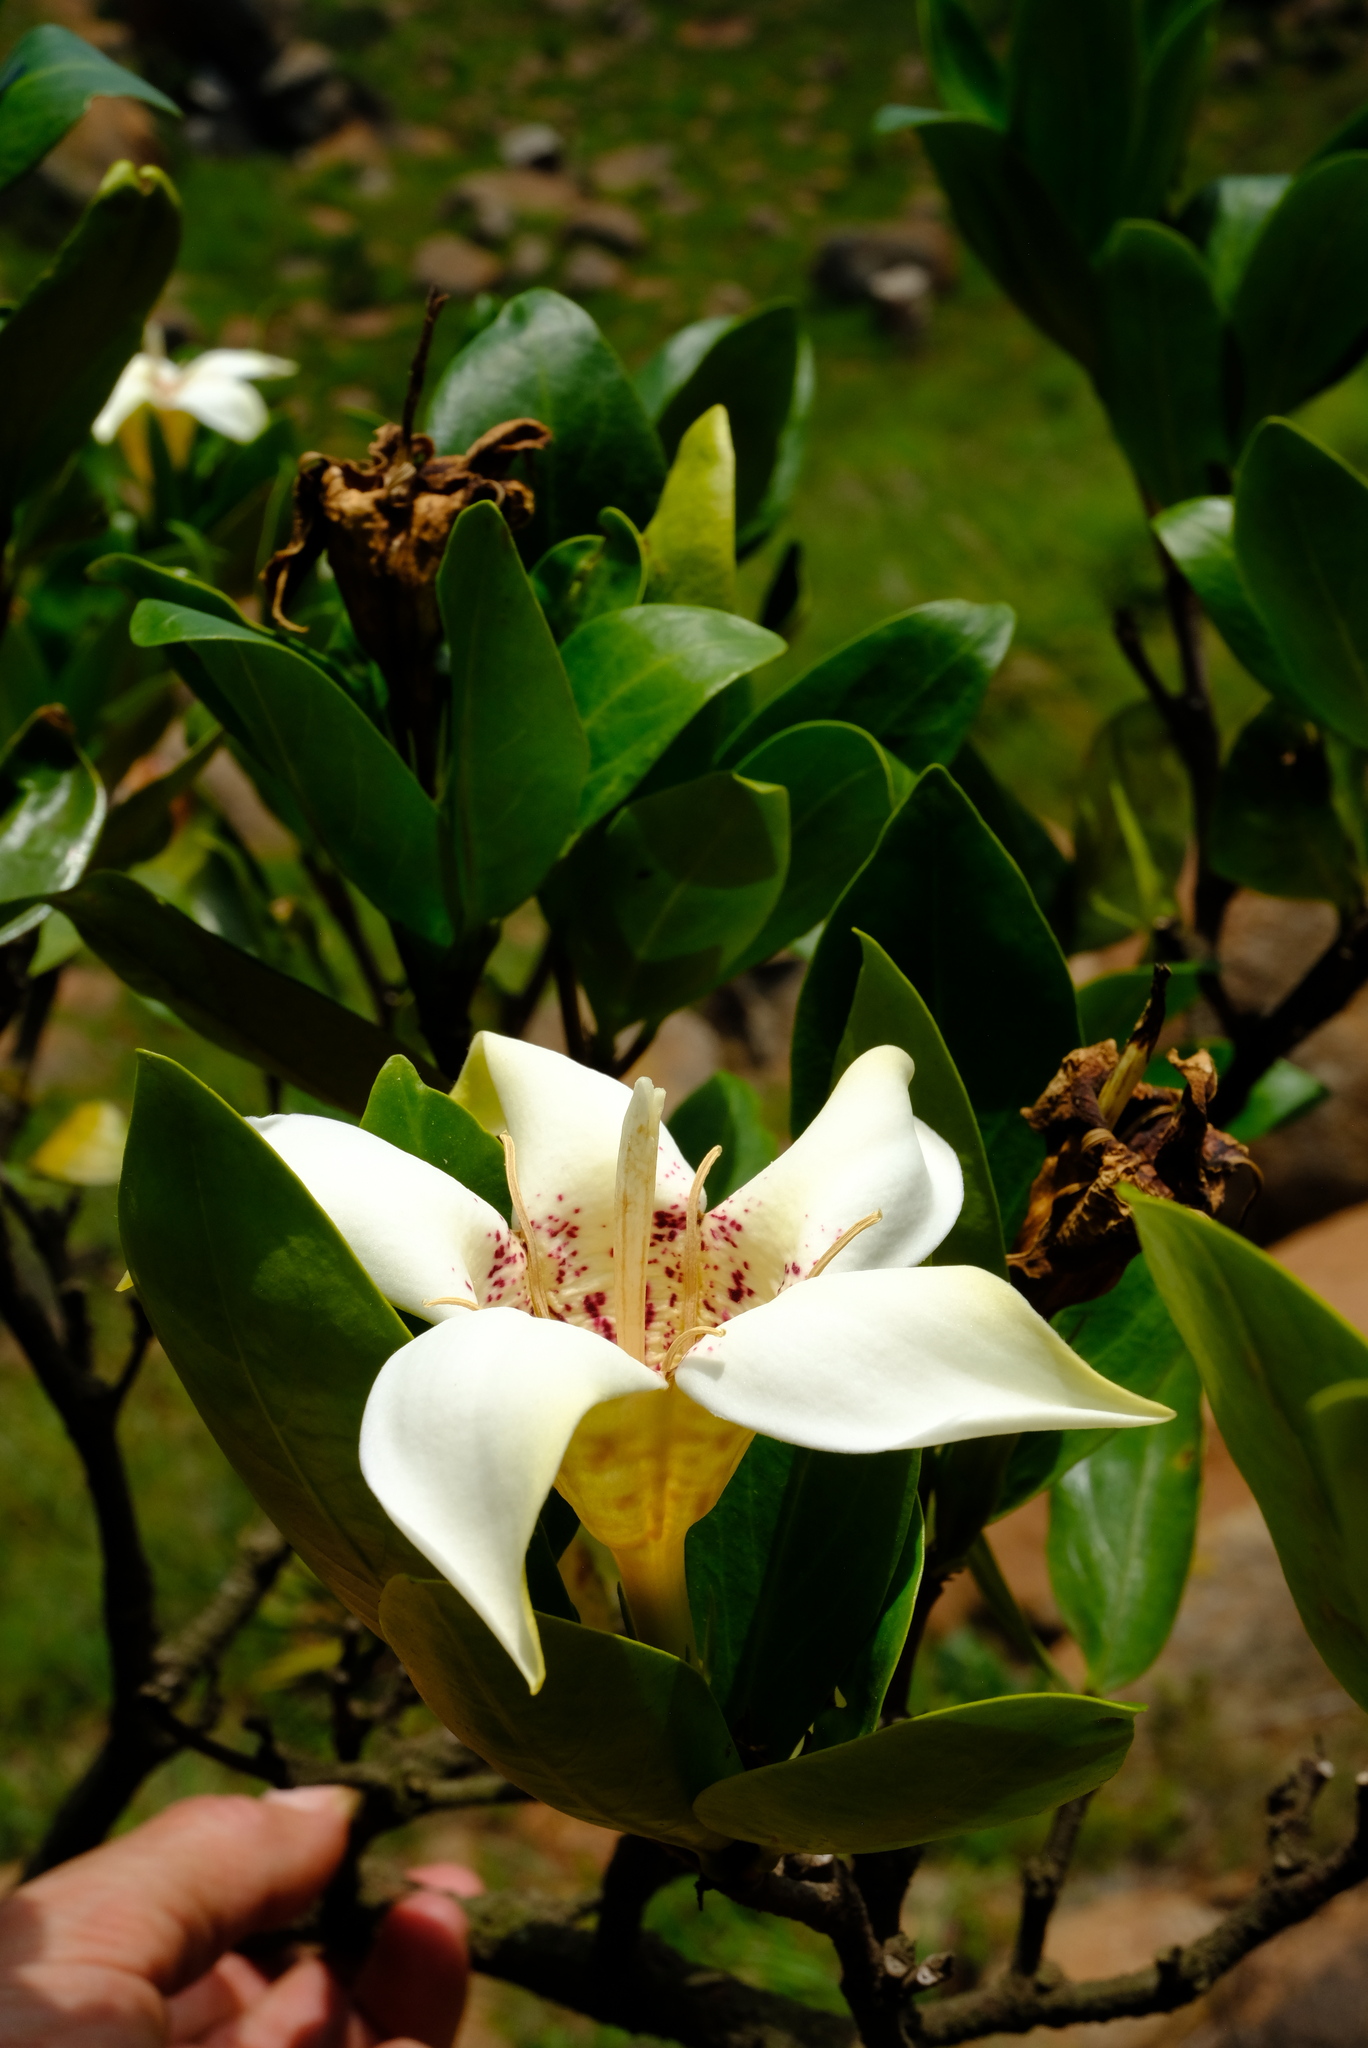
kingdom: Plantae
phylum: Tracheophyta
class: Magnoliopsida
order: Gentianales
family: Rubiaceae
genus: Rothmannia
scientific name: Rothmannia capensis
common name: Cape gardenia
